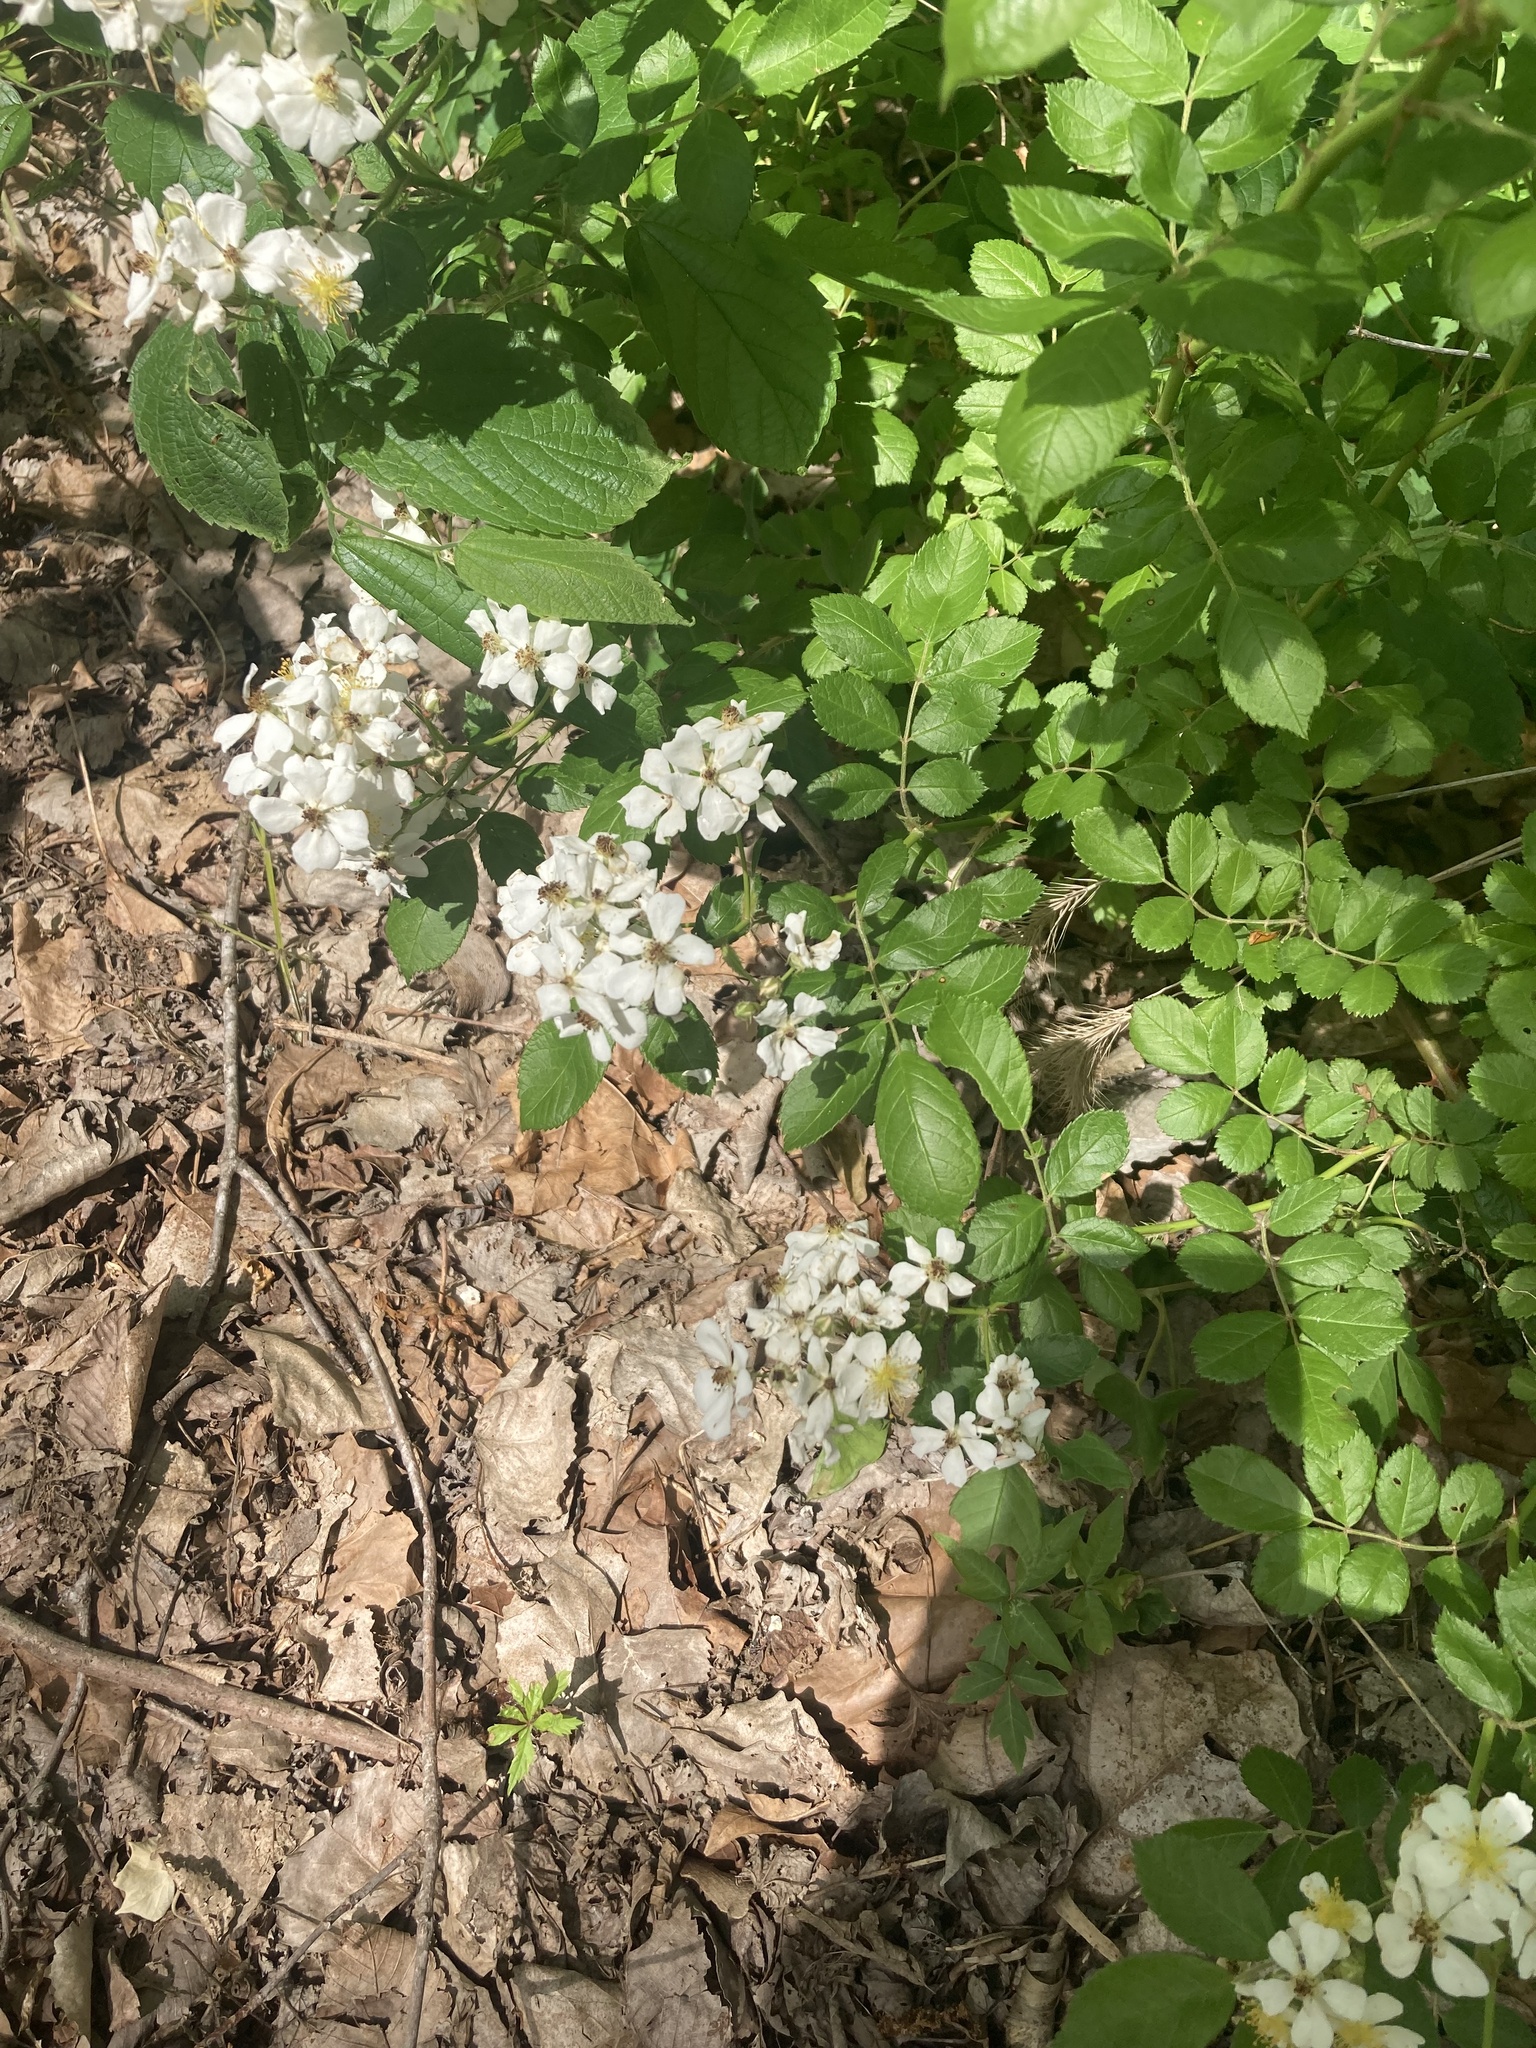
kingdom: Plantae
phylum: Tracheophyta
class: Magnoliopsida
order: Rosales
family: Rosaceae
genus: Rosa
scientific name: Rosa multiflora
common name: Multiflora rose
